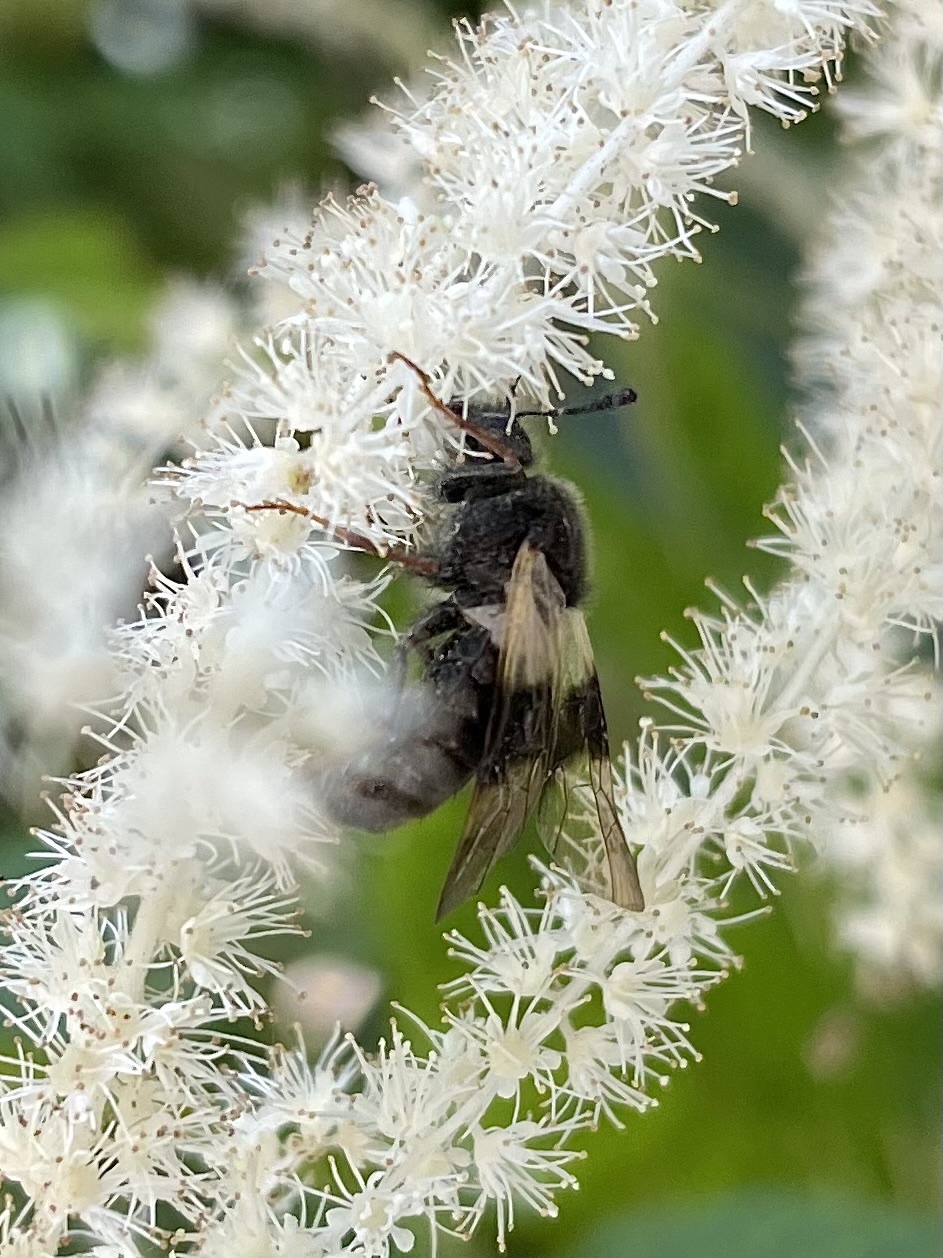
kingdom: Animalia
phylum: Arthropoda
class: Insecta
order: Hymenoptera
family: Cimbicidae
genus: Abia
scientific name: Abia fasciata
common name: Banded honeysuckle sawfly
